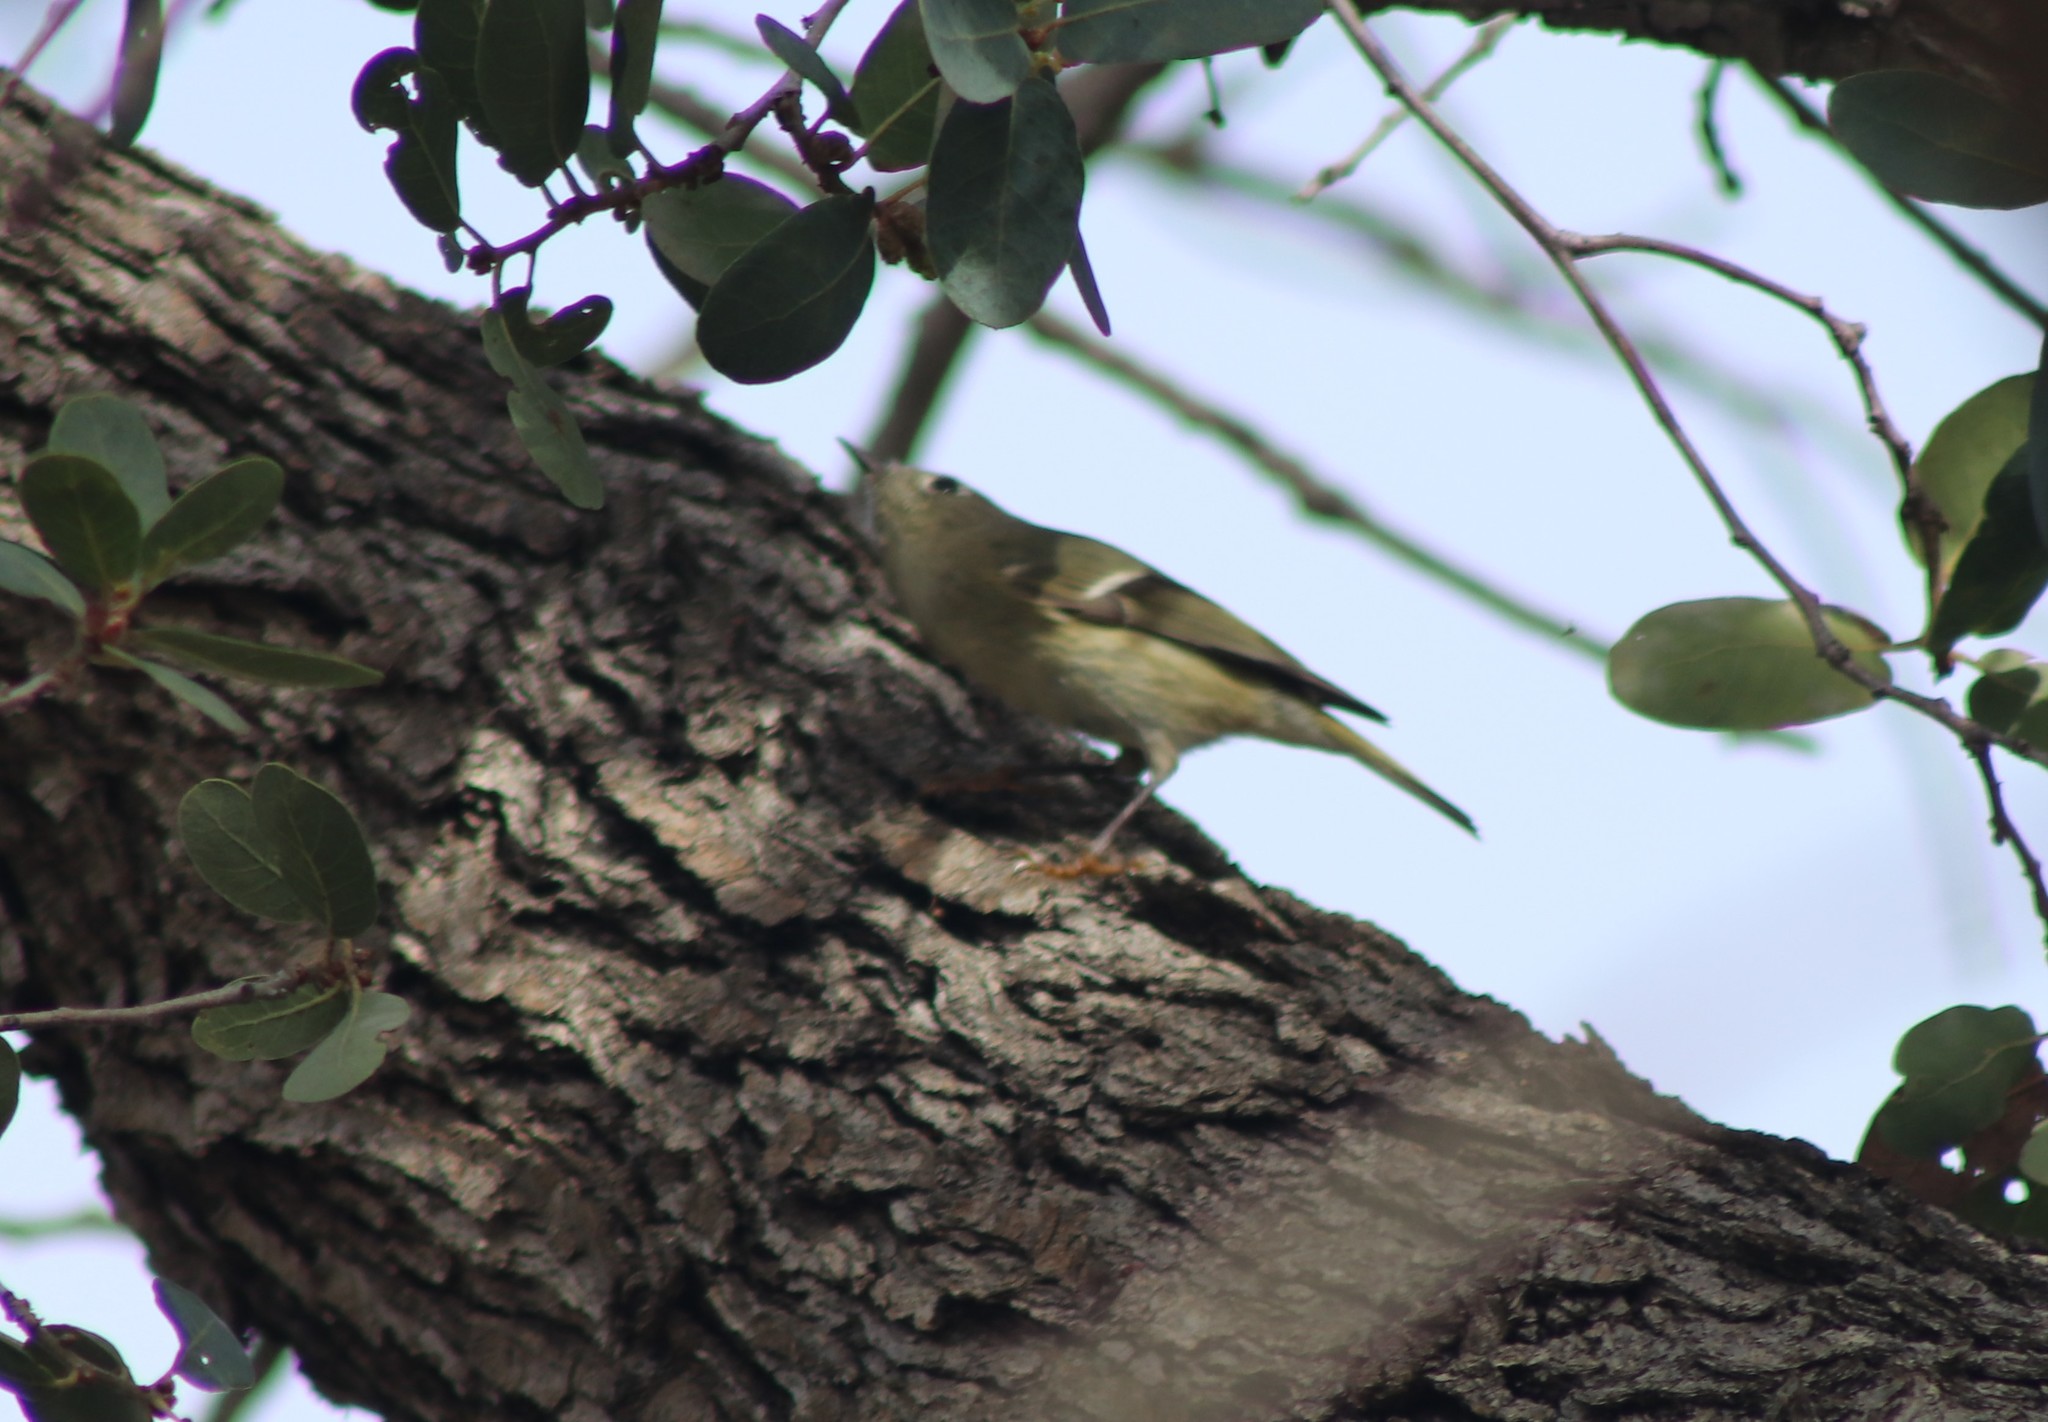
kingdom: Animalia
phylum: Chordata
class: Aves
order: Passeriformes
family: Regulidae
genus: Regulus
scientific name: Regulus calendula
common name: Ruby-crowned kinglet
